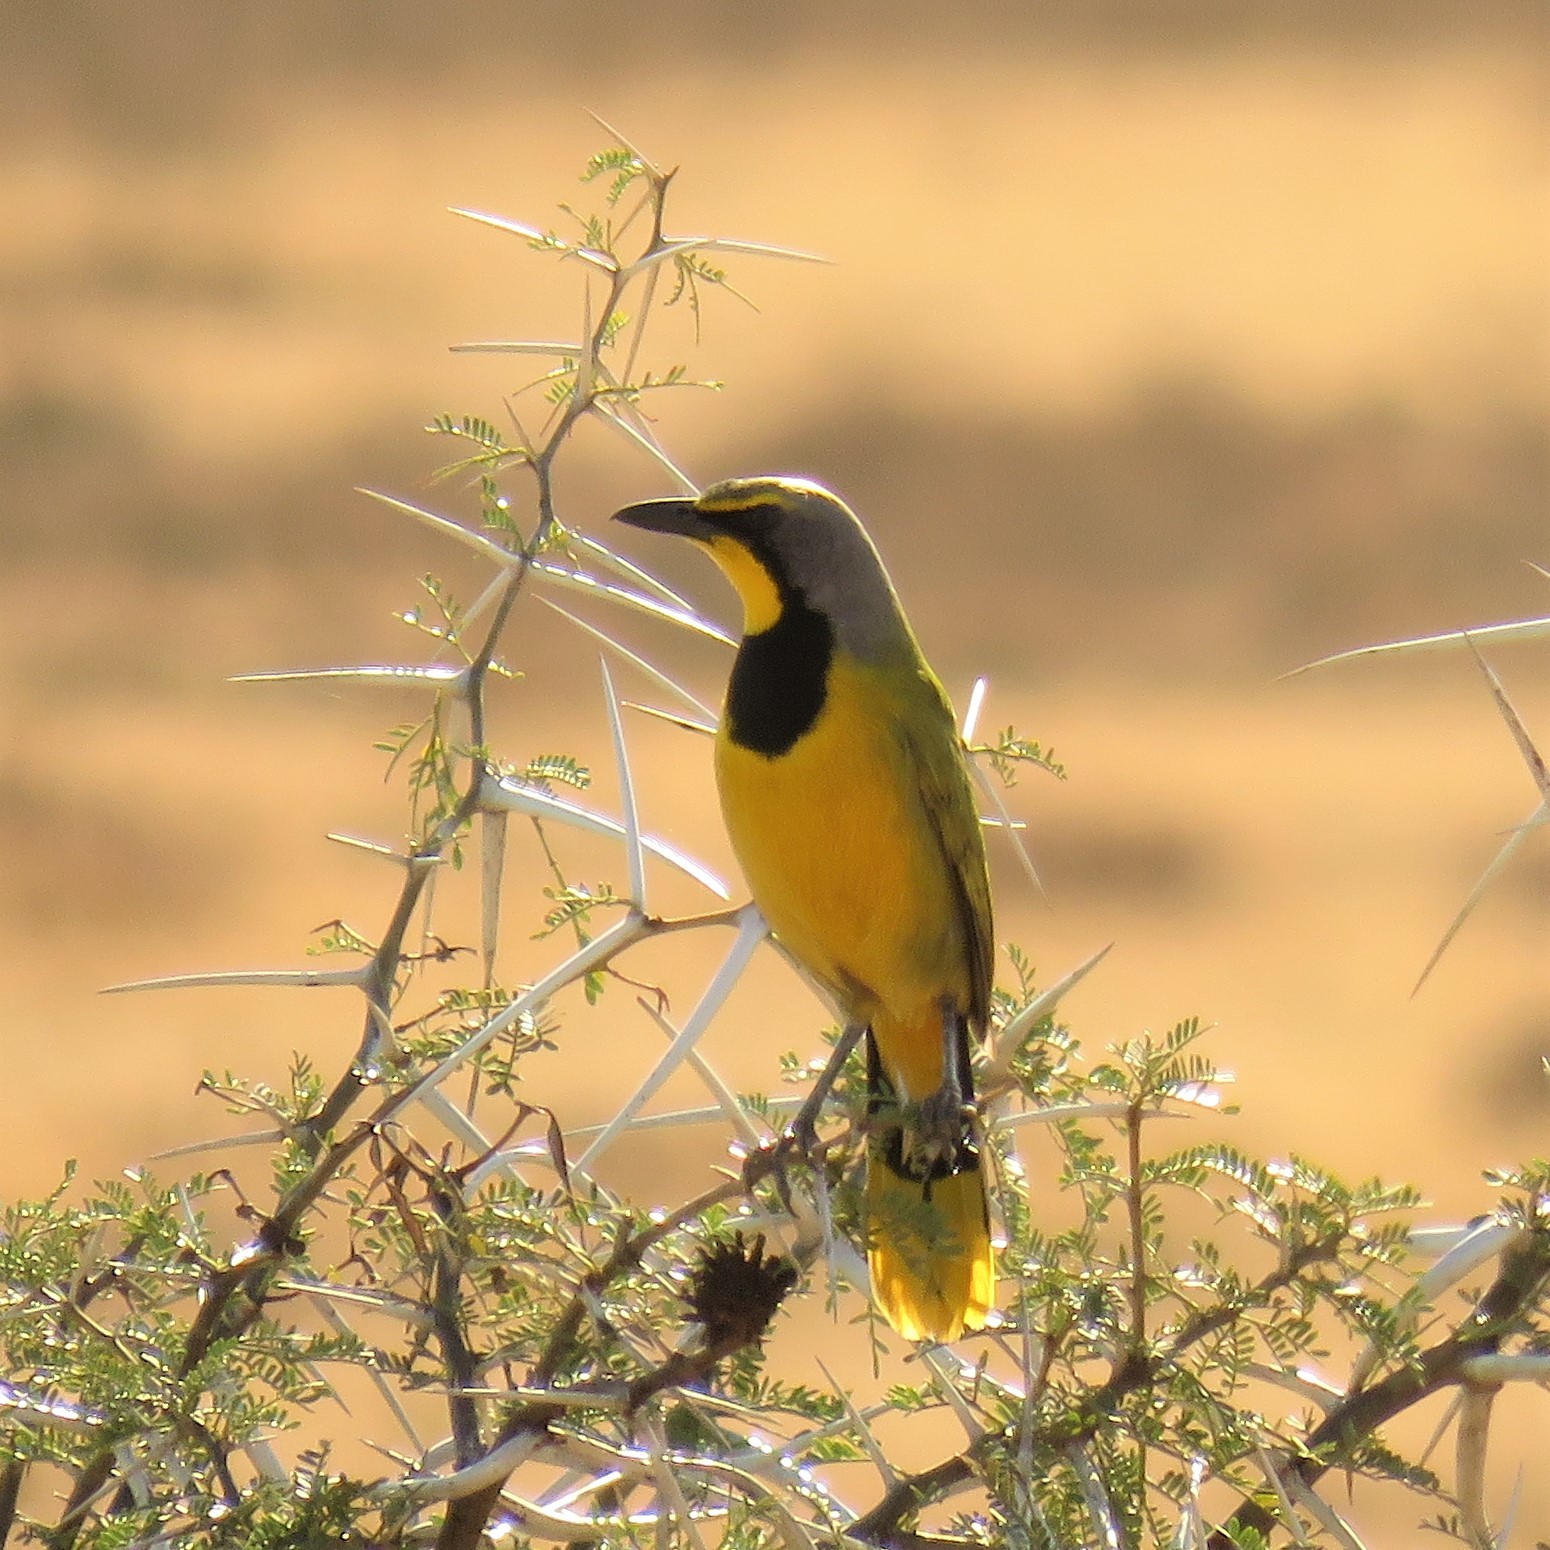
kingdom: Animalia
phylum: Chordata
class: Aves
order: Passeriformes
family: Malaconotidae
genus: Telophorus
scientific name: Telophorus zeylonus
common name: Bokmakierie
